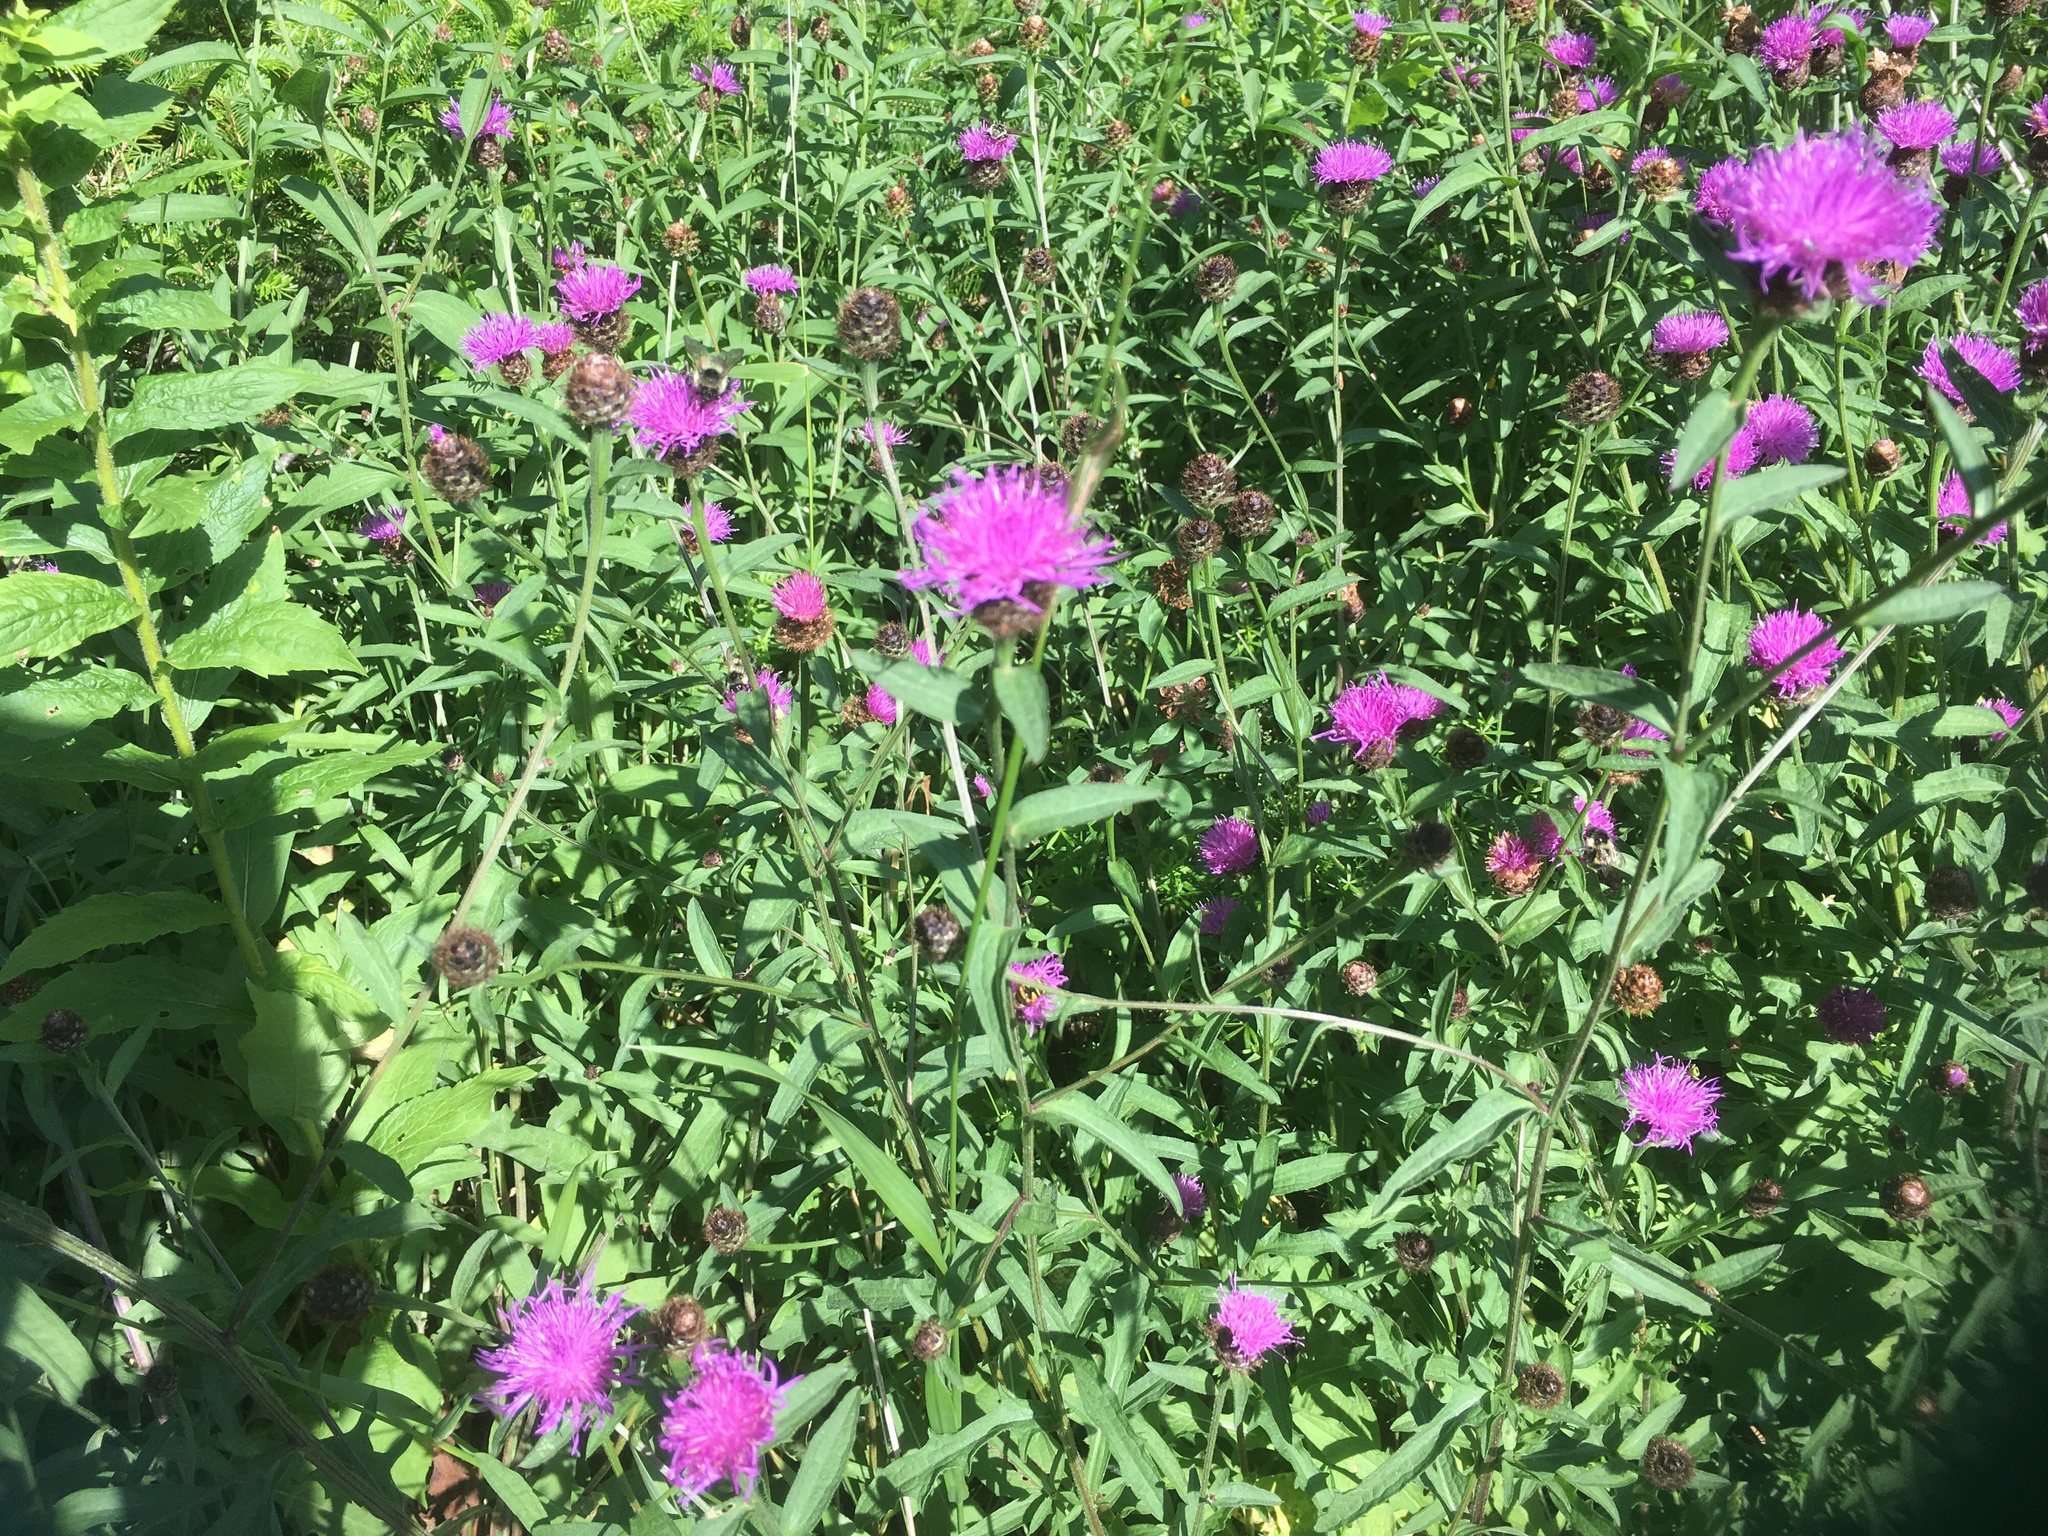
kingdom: Plantae
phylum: Tracheophyta
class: Magnoliopsida
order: Asterales
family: Asteraceae
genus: Centaurea
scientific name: Centaurea nigra
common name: Lesser knapweed
